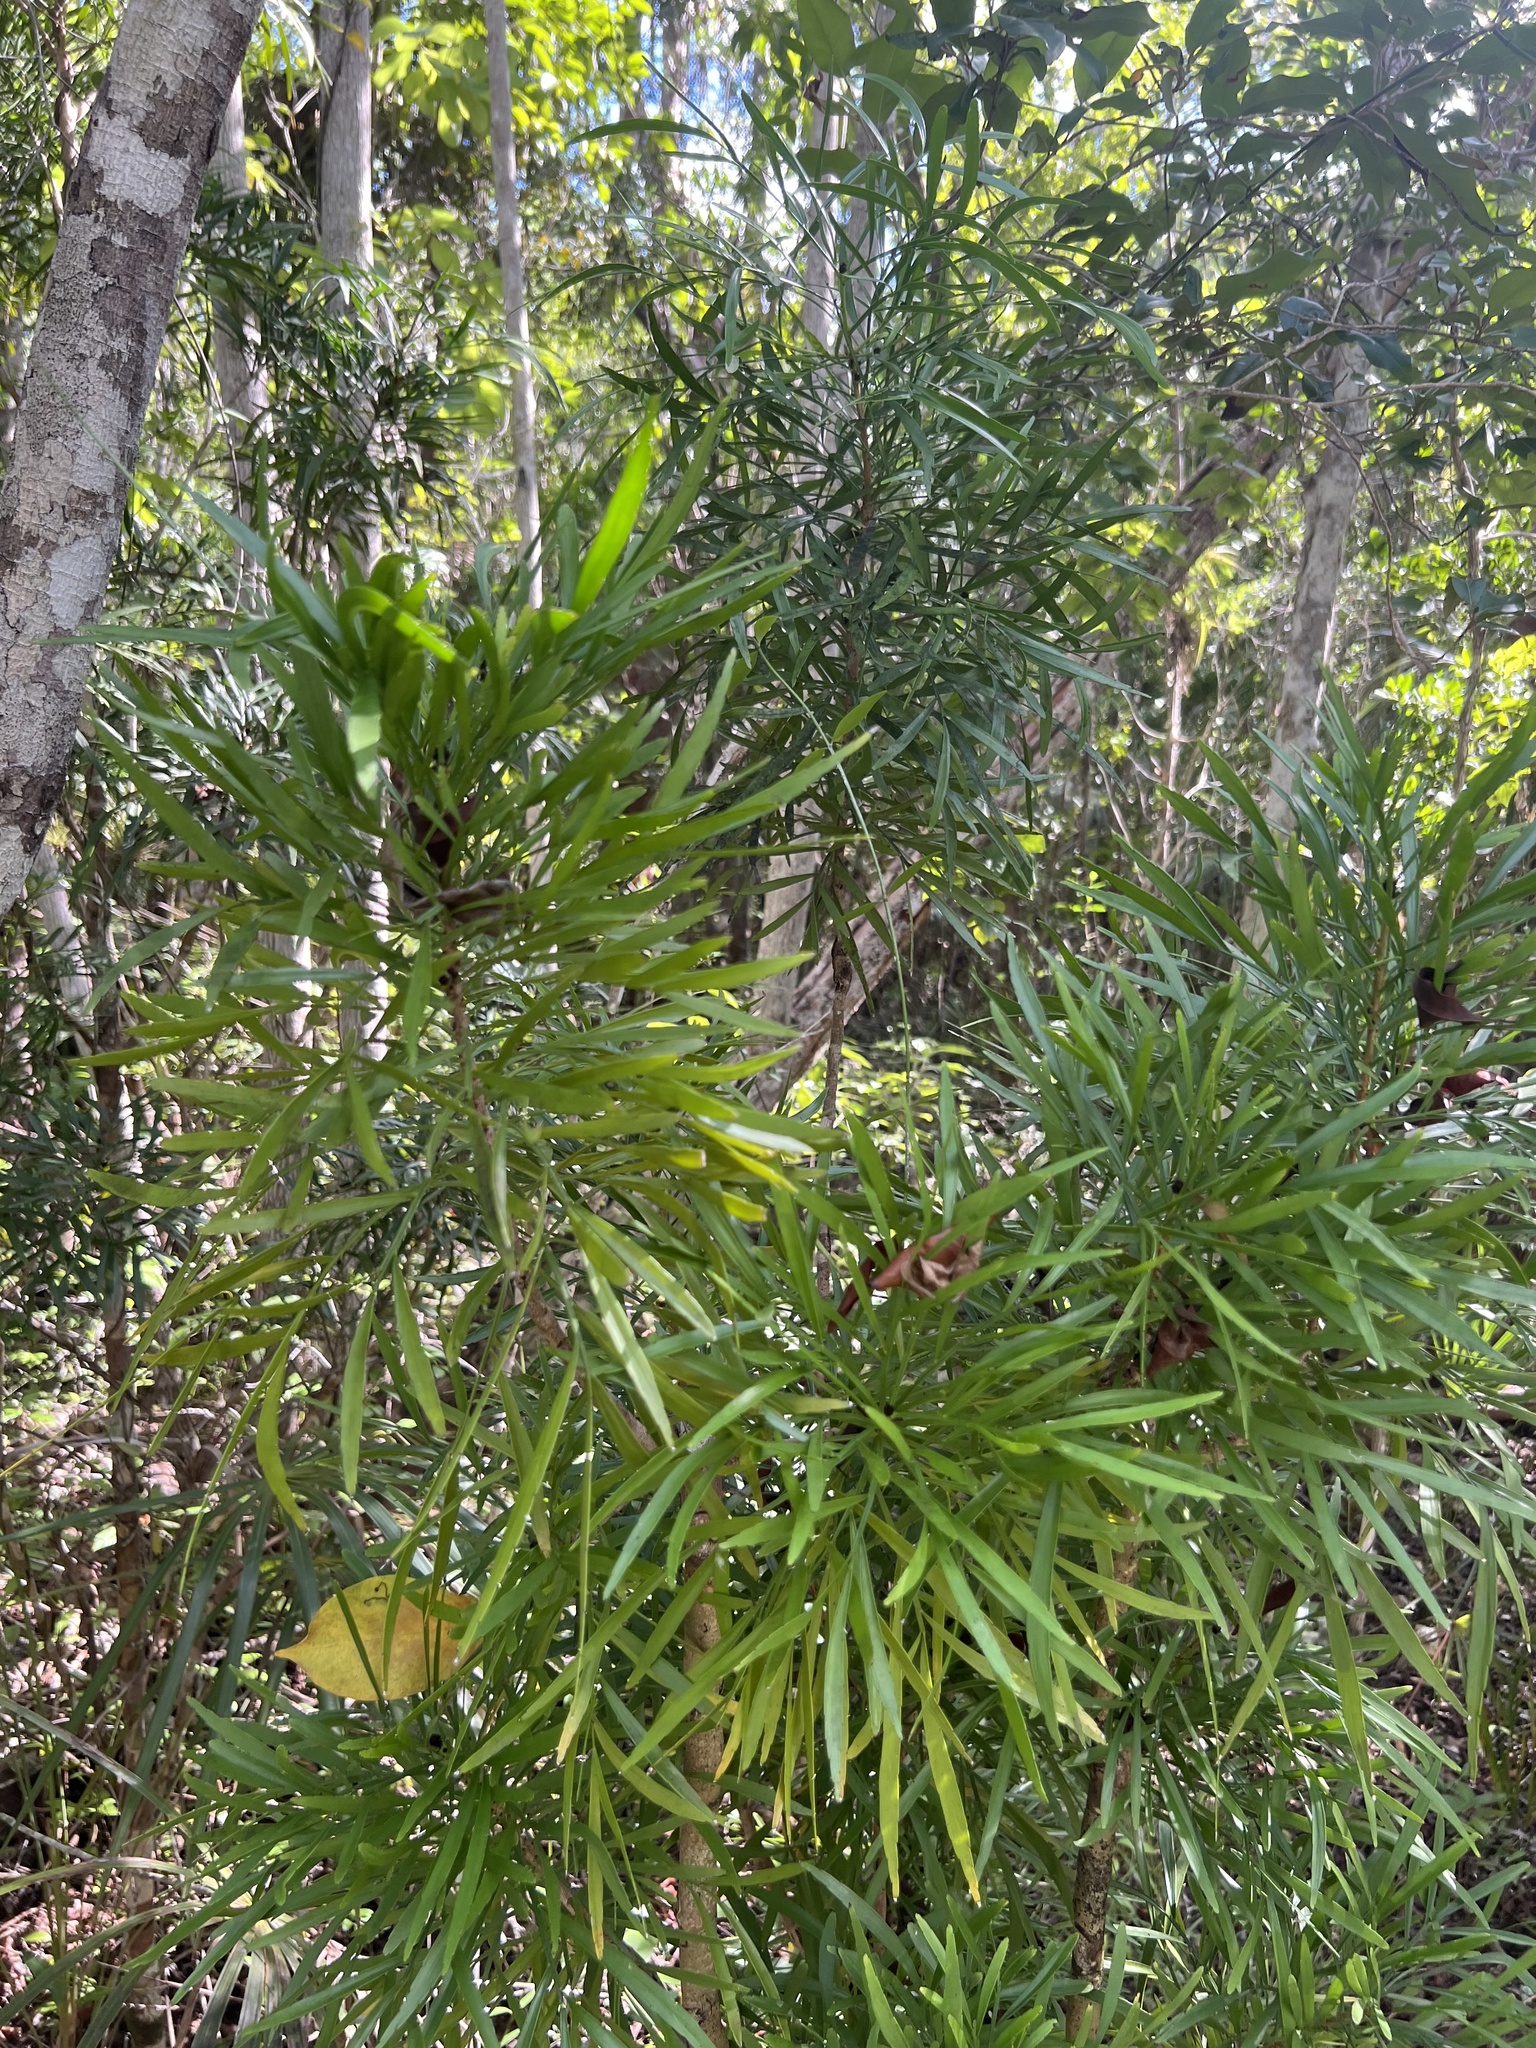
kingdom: Plantae
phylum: Tracheophyta
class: Magnoliopsida
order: Malpighiales
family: Phyllanthaceae
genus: Phyllanthus
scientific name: Phyllanthus angustifolius
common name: Foliage flower
